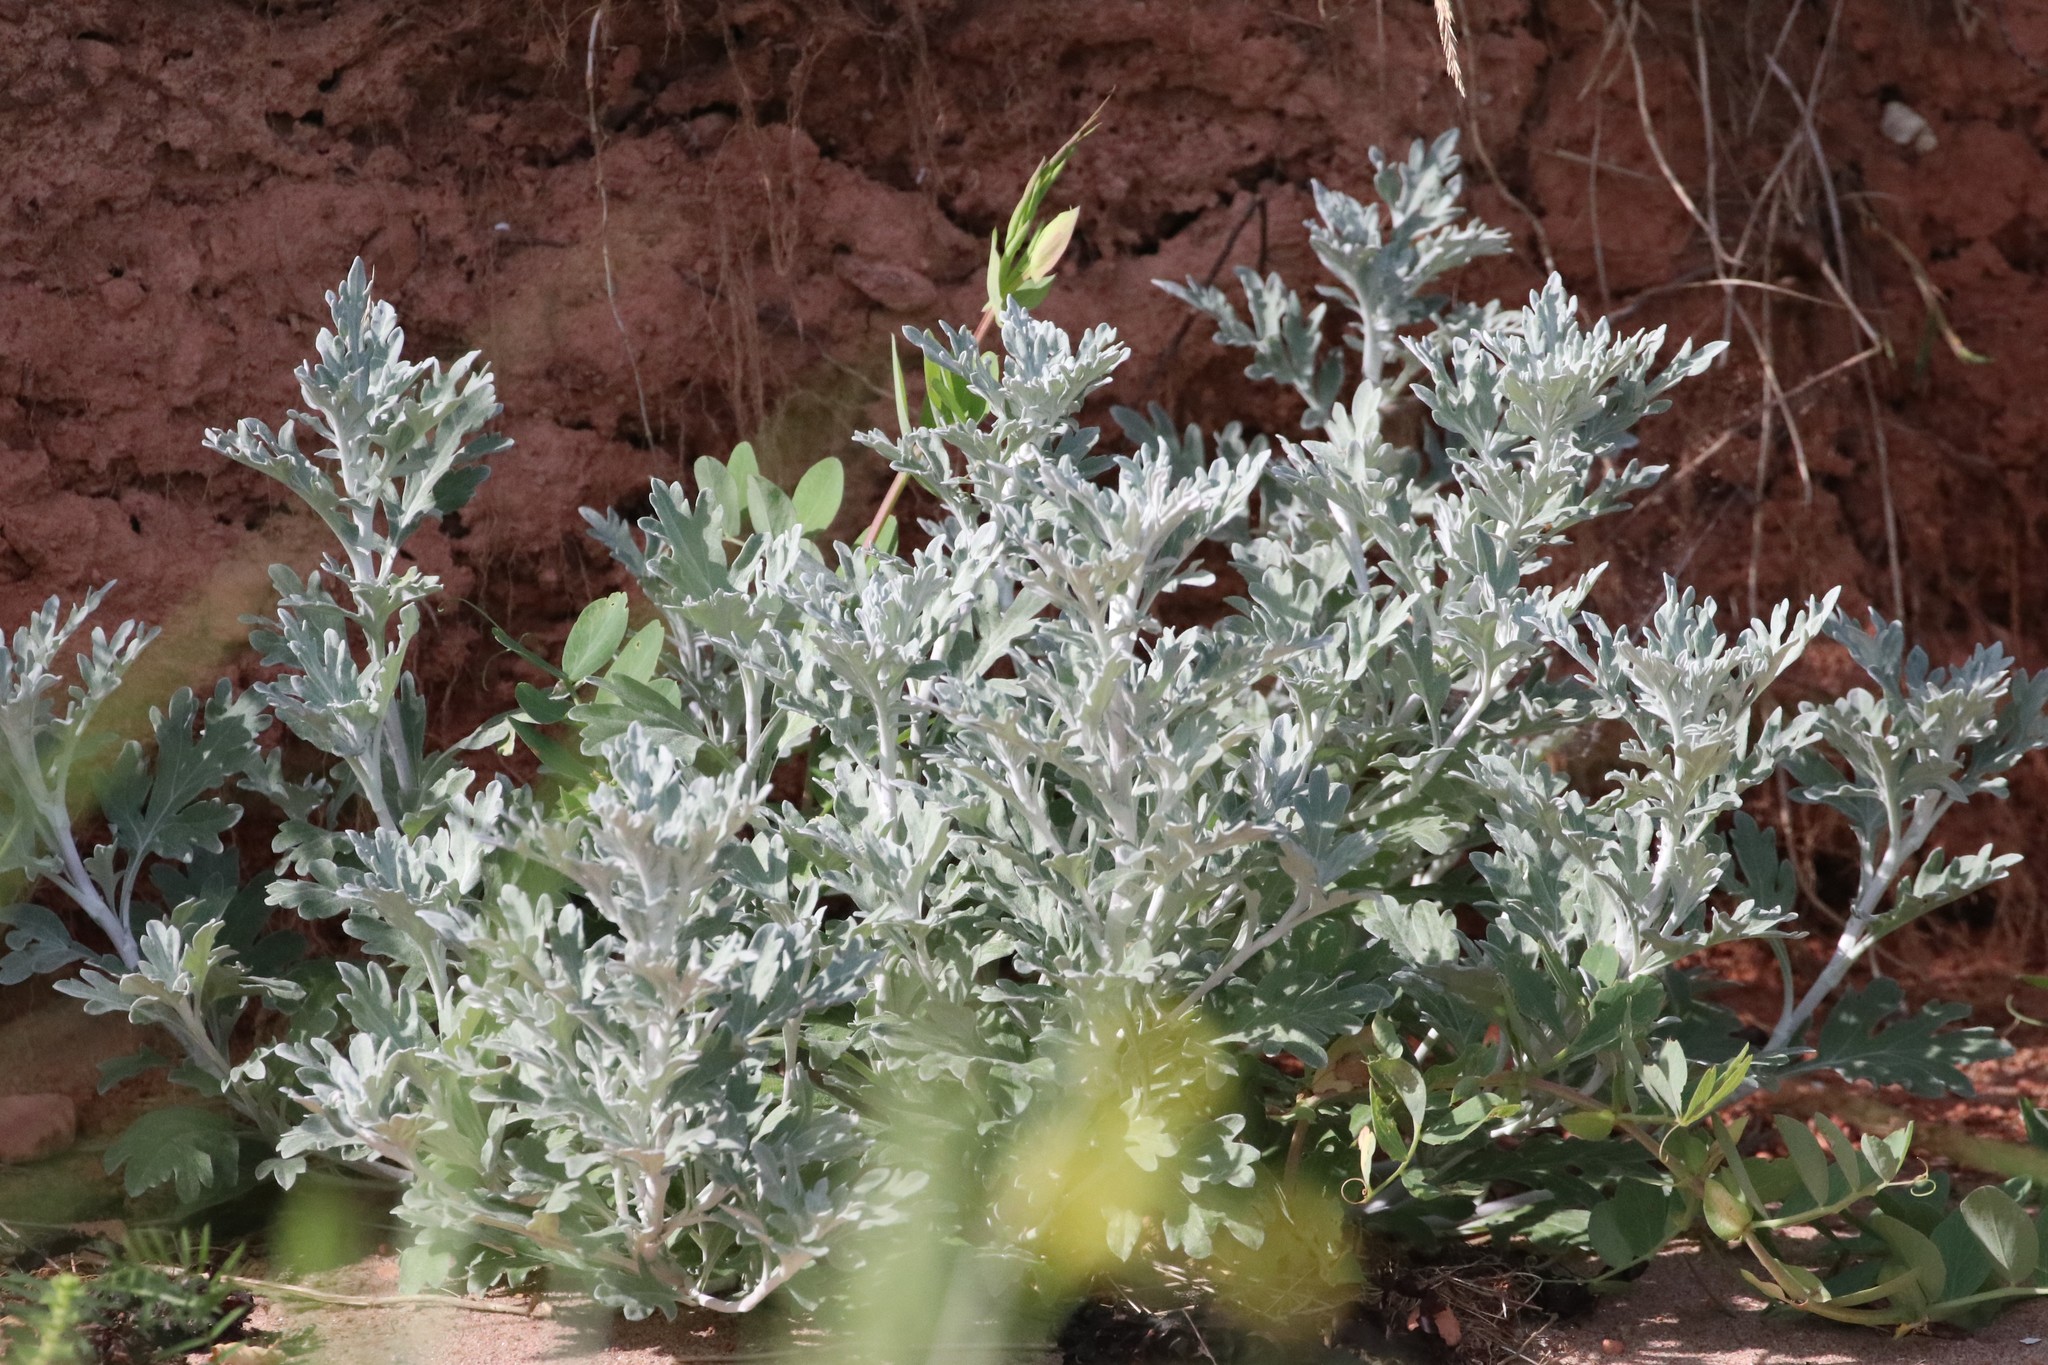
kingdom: Plantae
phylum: Tracheophyta
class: Magnoliopsida
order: Asterales
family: Asteraceae
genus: Artemisia
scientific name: Artemisia stelleriana
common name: Beach wormwood
